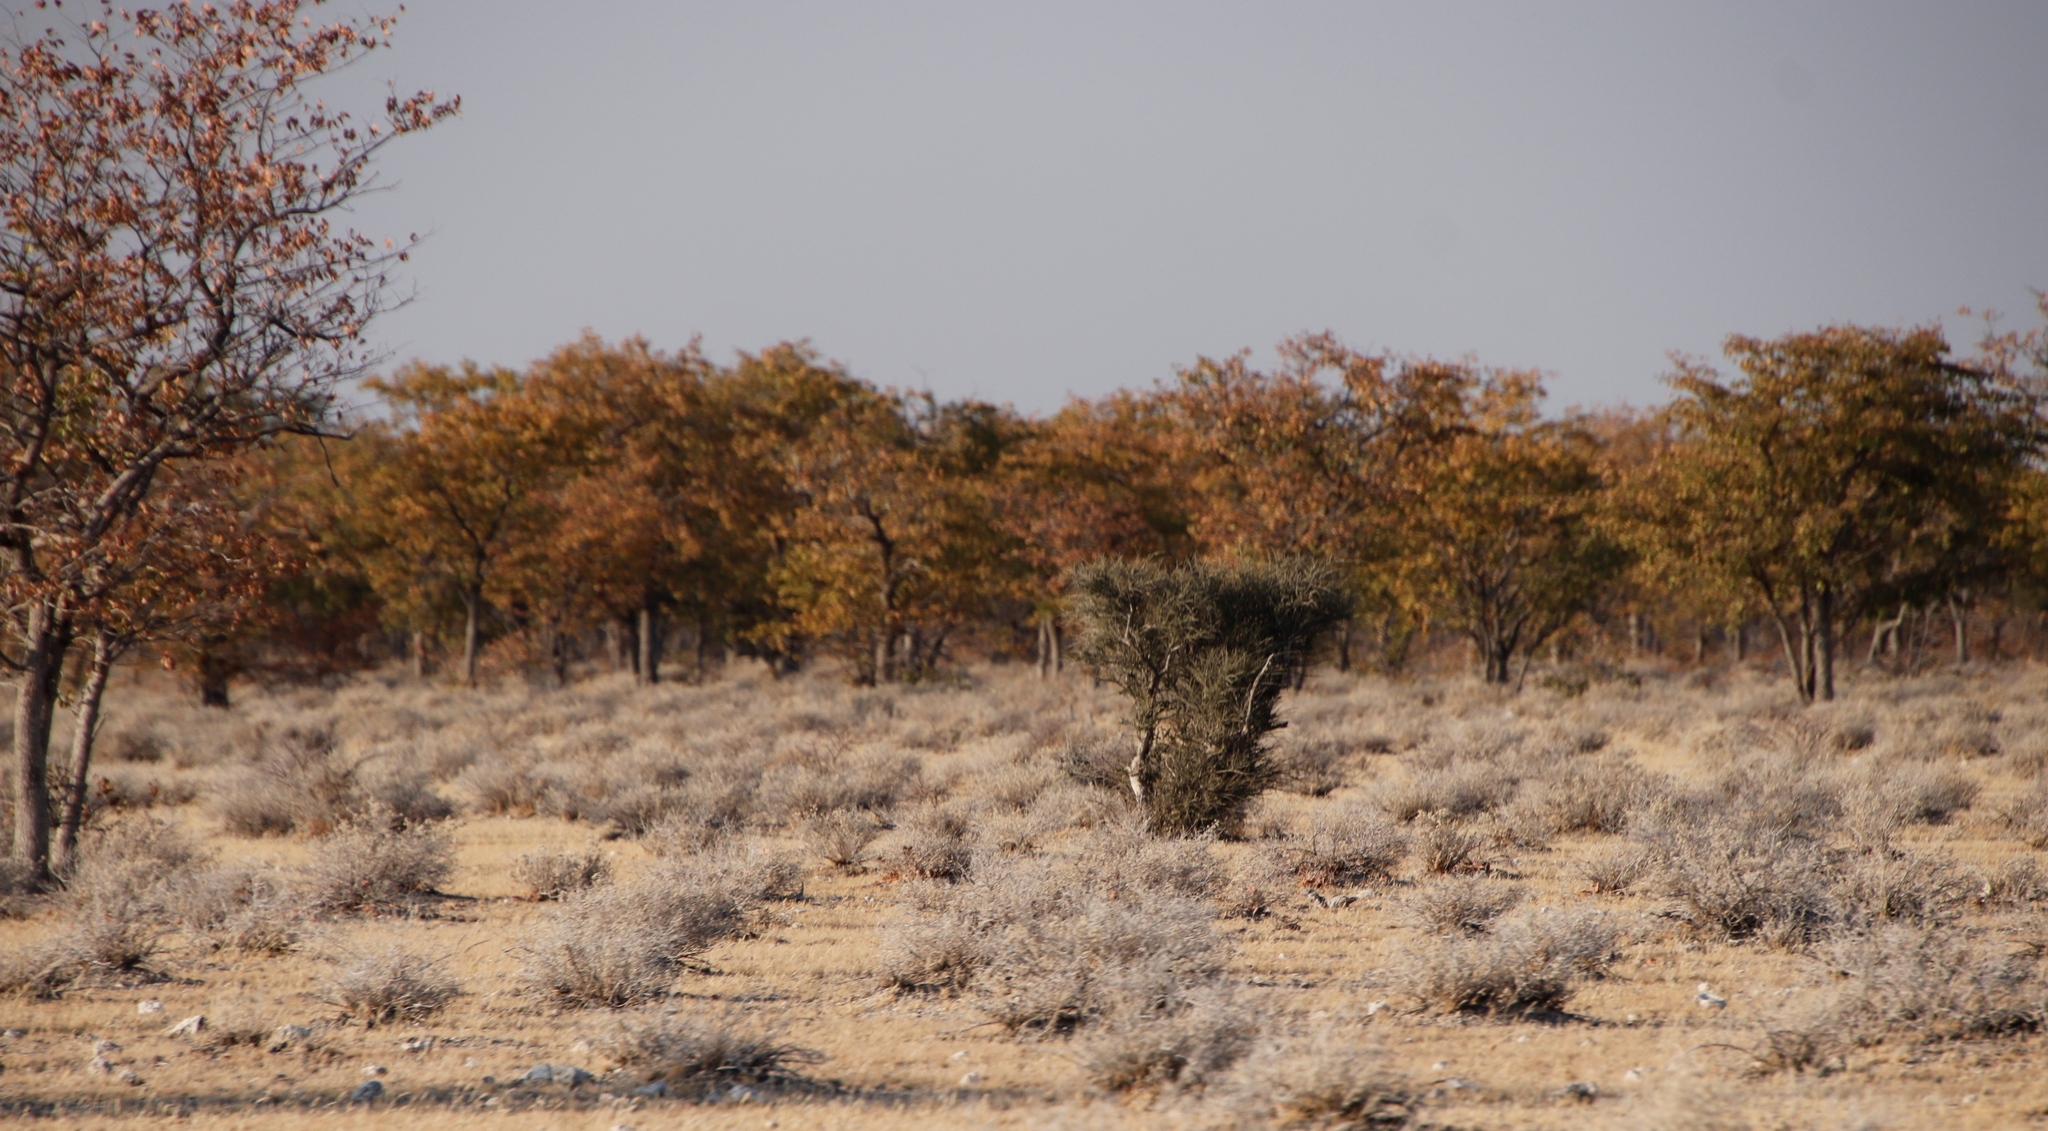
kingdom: Plantae
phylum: Tracheophyta
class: Magnoliopsida
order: Fabales
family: Fabaceae
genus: Colophospermum
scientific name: Colophospermum mopane
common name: Mopane
